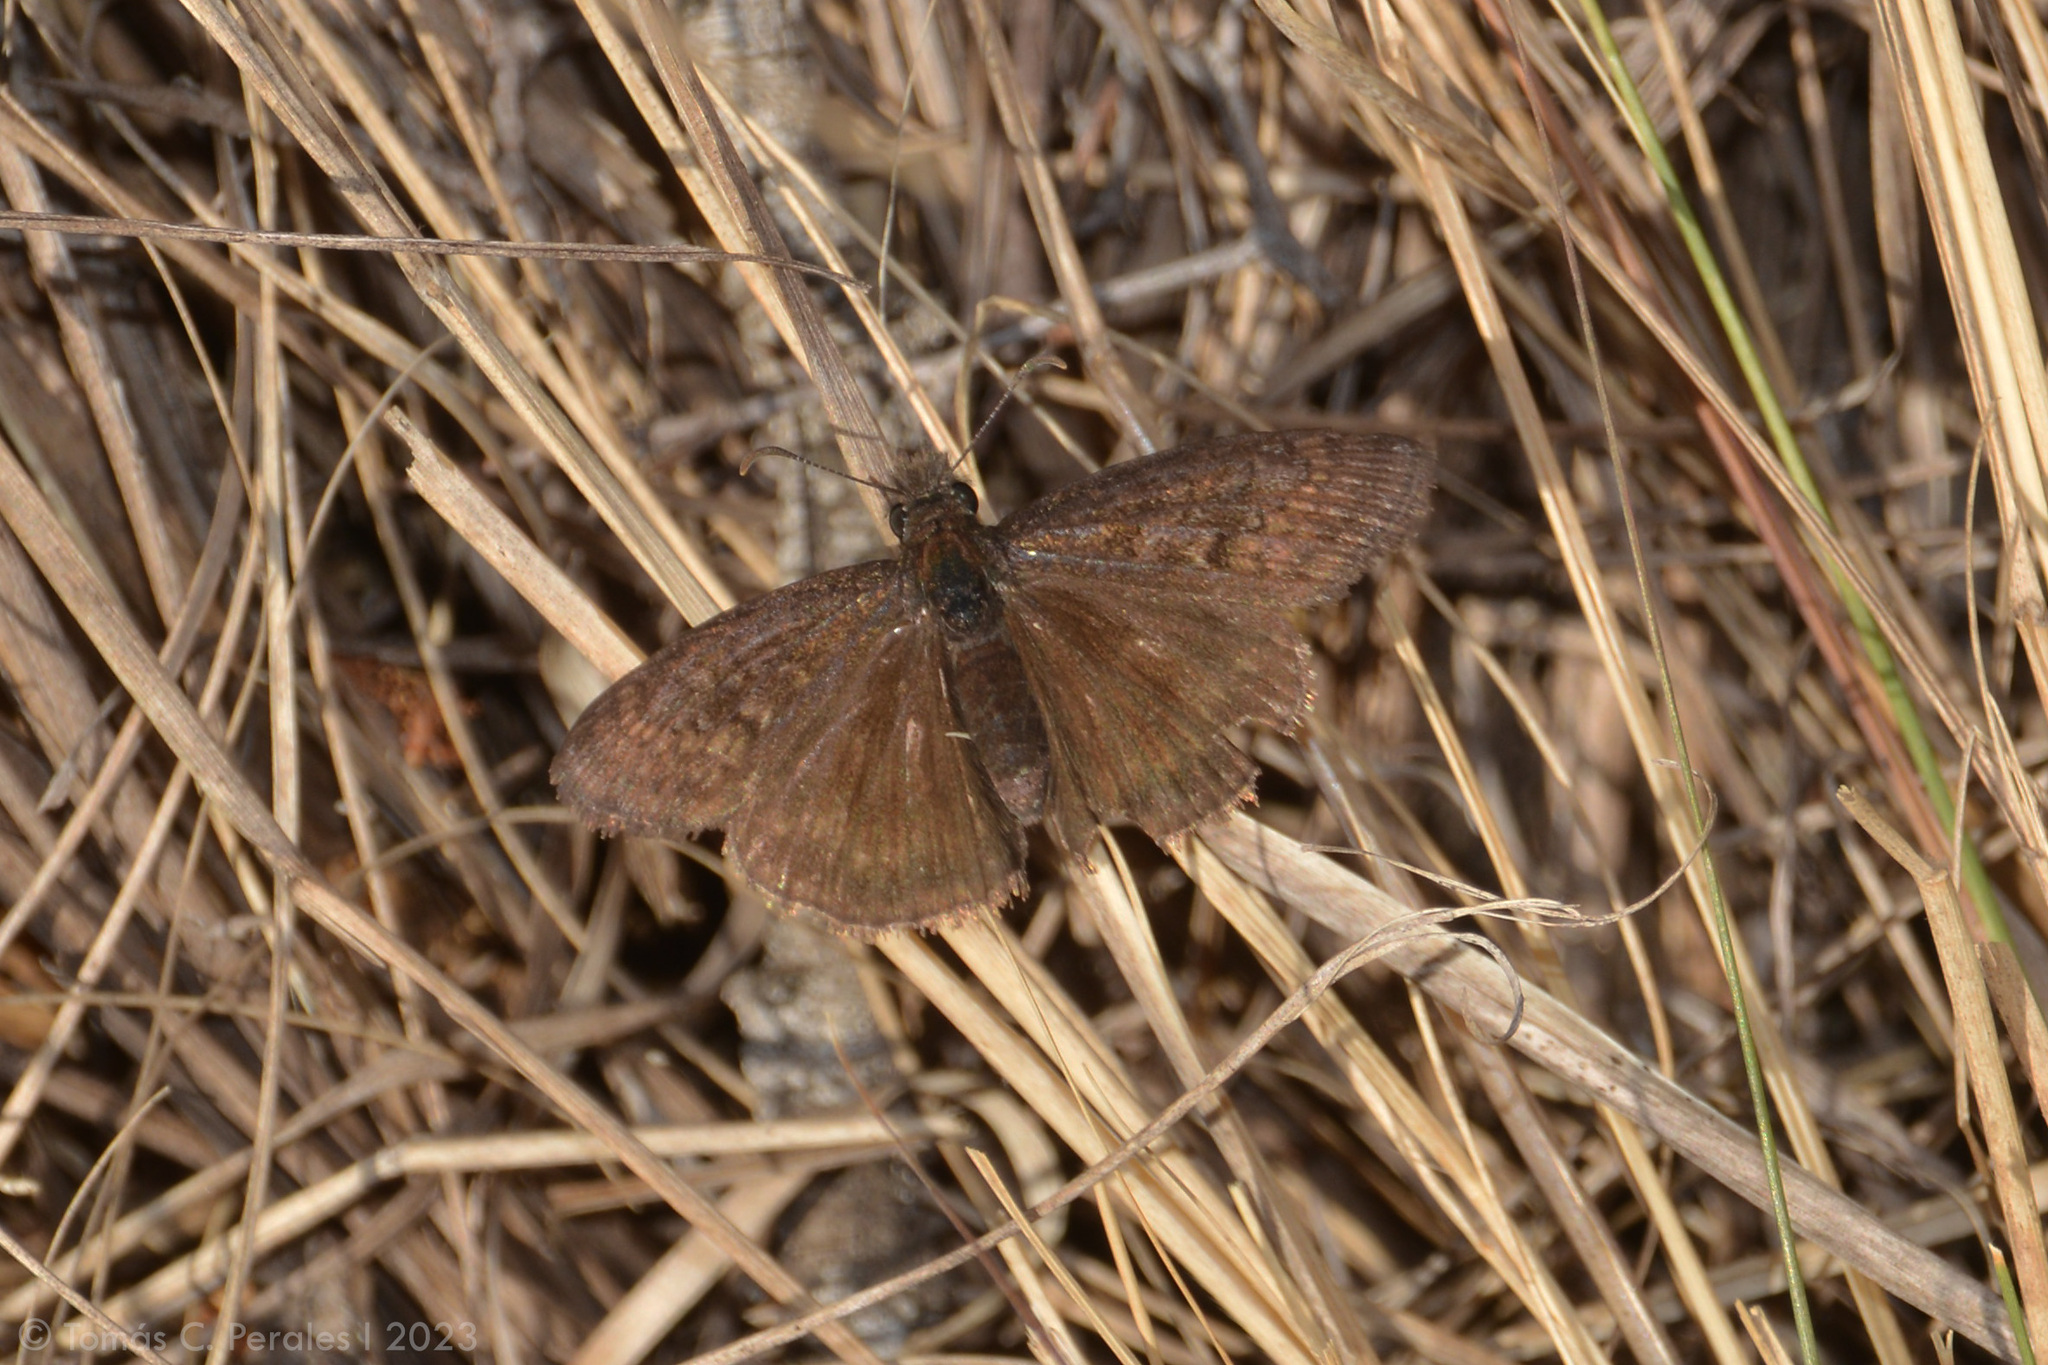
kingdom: Animalia
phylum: Arthropoda
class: Insecta
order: Lepidoptera
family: Hesperiidae
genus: Gesta
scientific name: Gesta austerus
